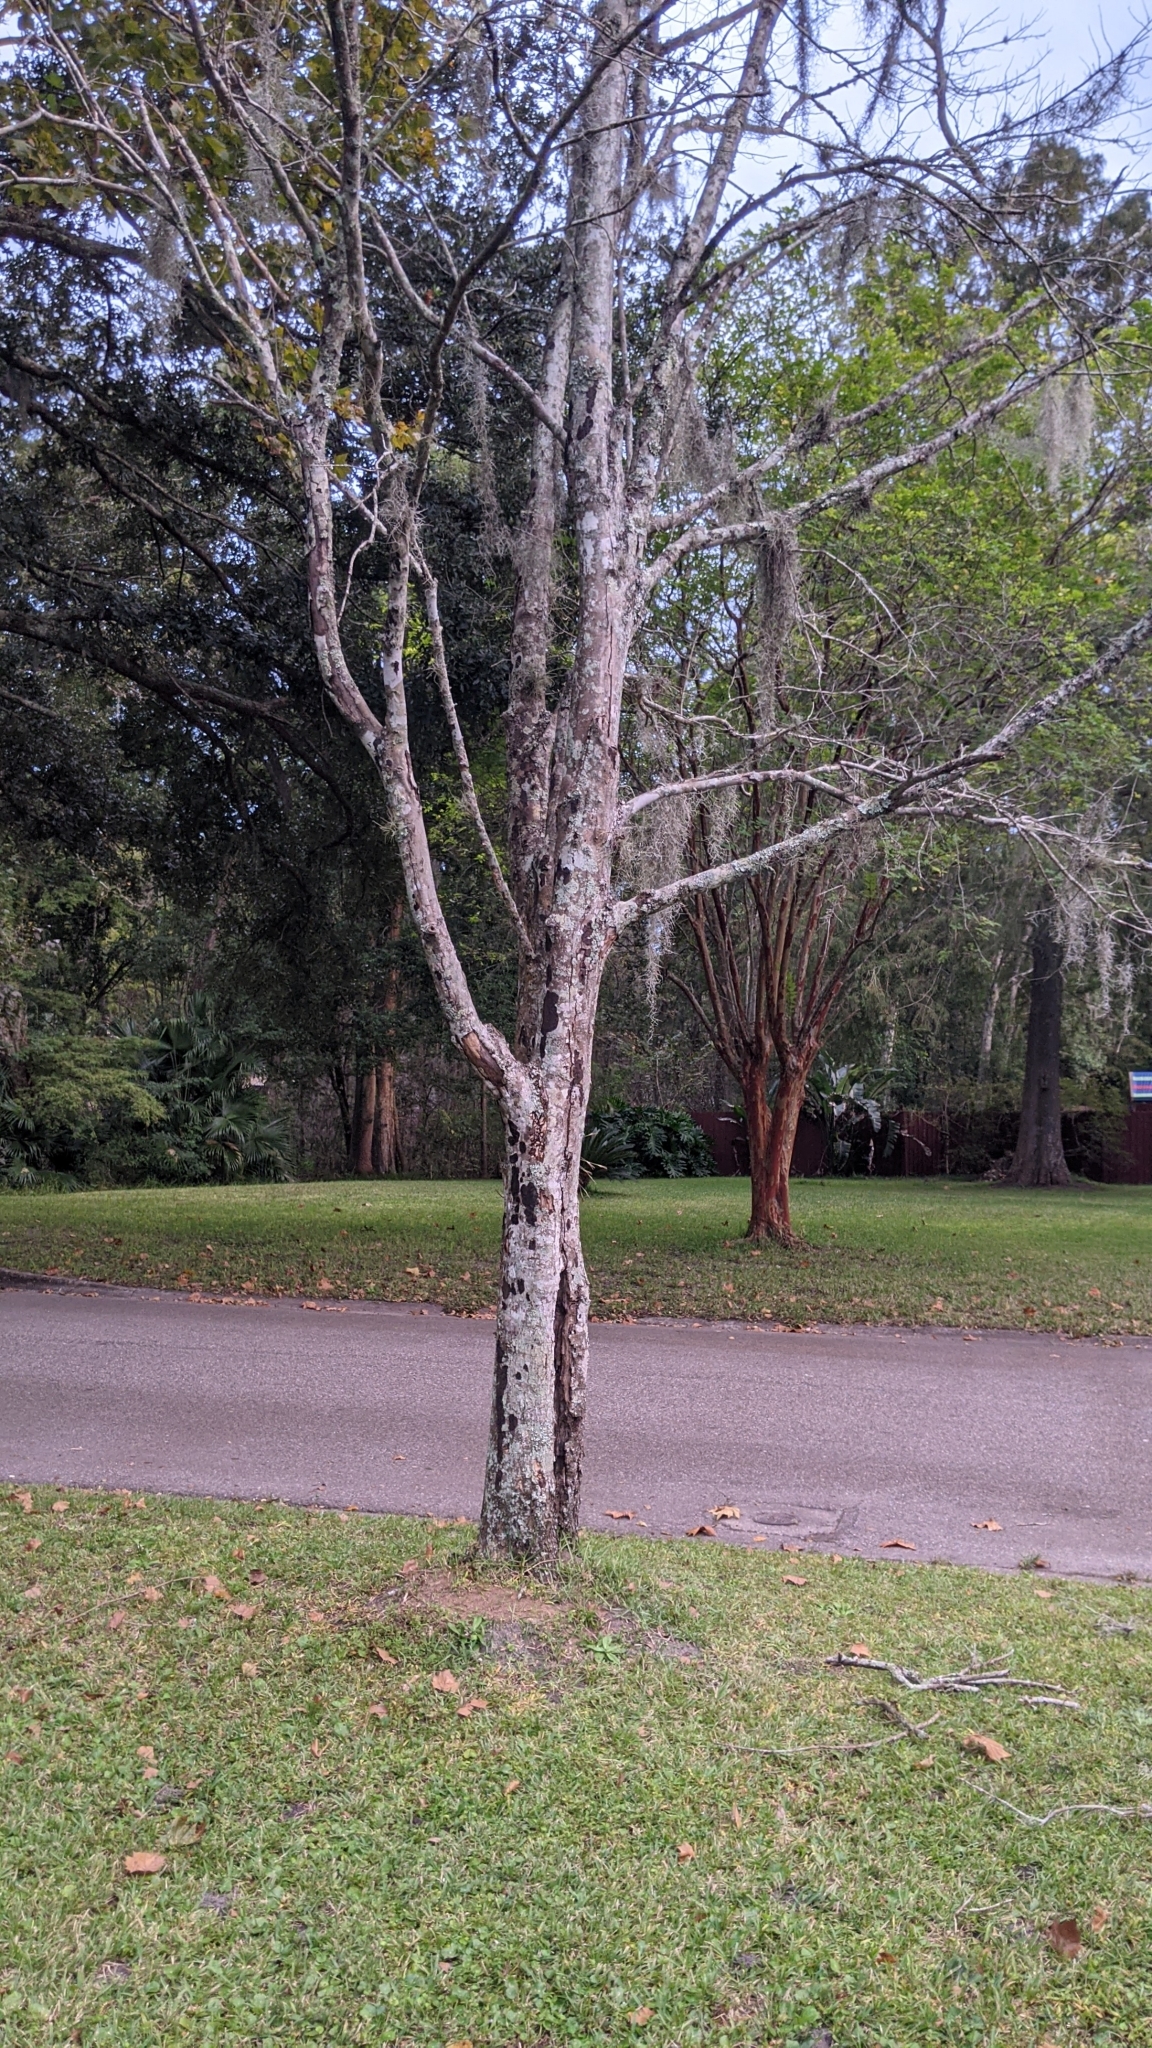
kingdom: Plantae
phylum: Tracheophyta
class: Magnoliopsida
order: Sapindales
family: Sapindaceae
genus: Acer
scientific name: Acer rubrum
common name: Red maple
